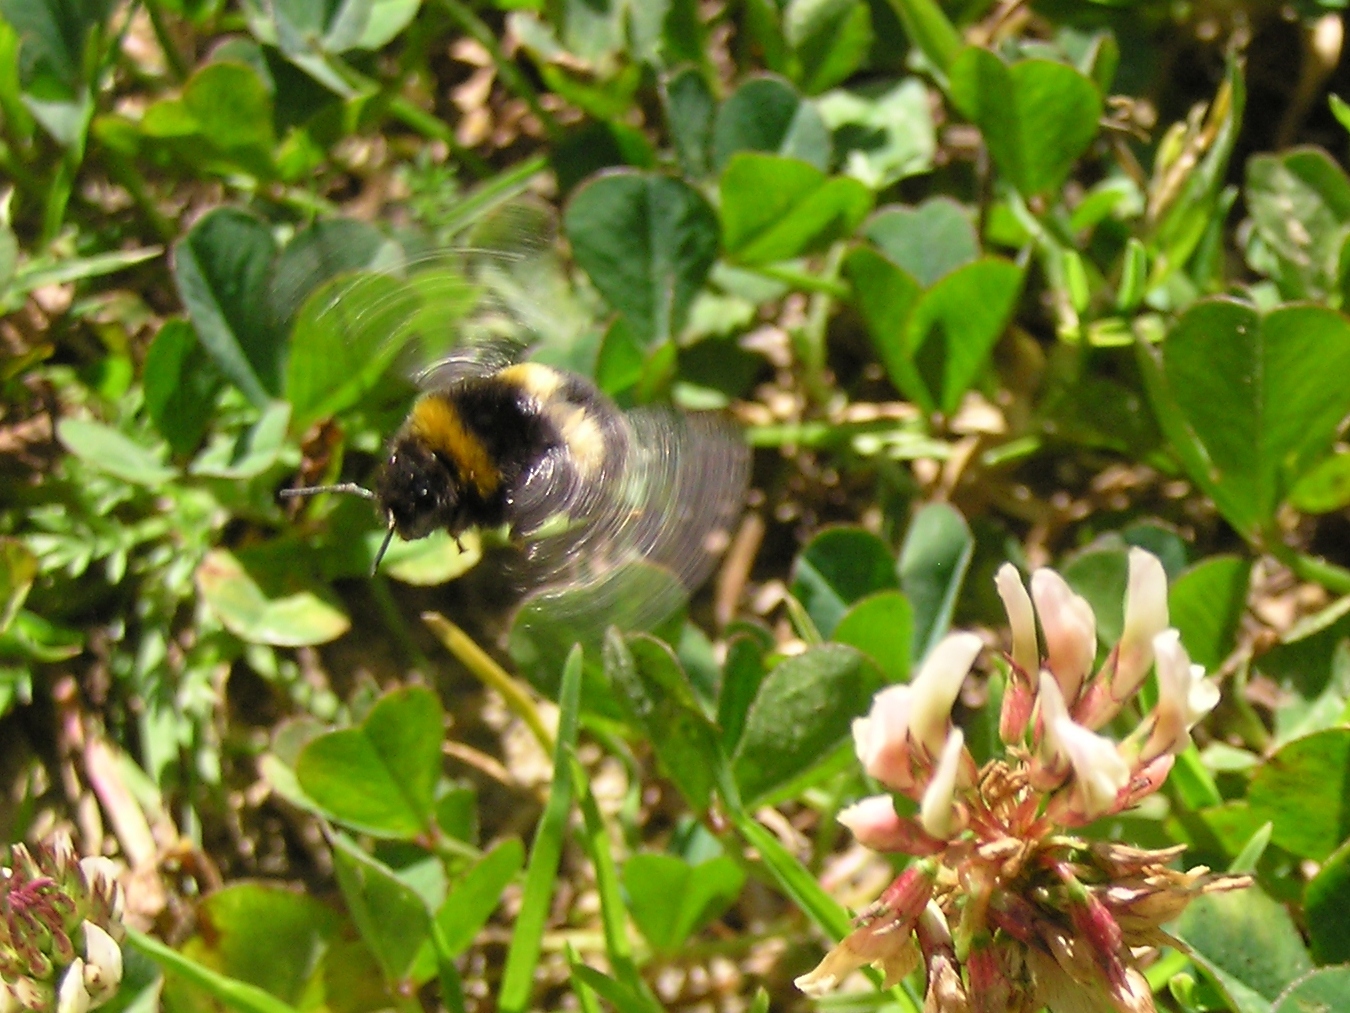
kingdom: Animalia
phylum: Arthropoda
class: Insecta
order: Hymenoptera
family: Apidae
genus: Bombus
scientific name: Bombus terrestris
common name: Buff-tailed bumblebee
